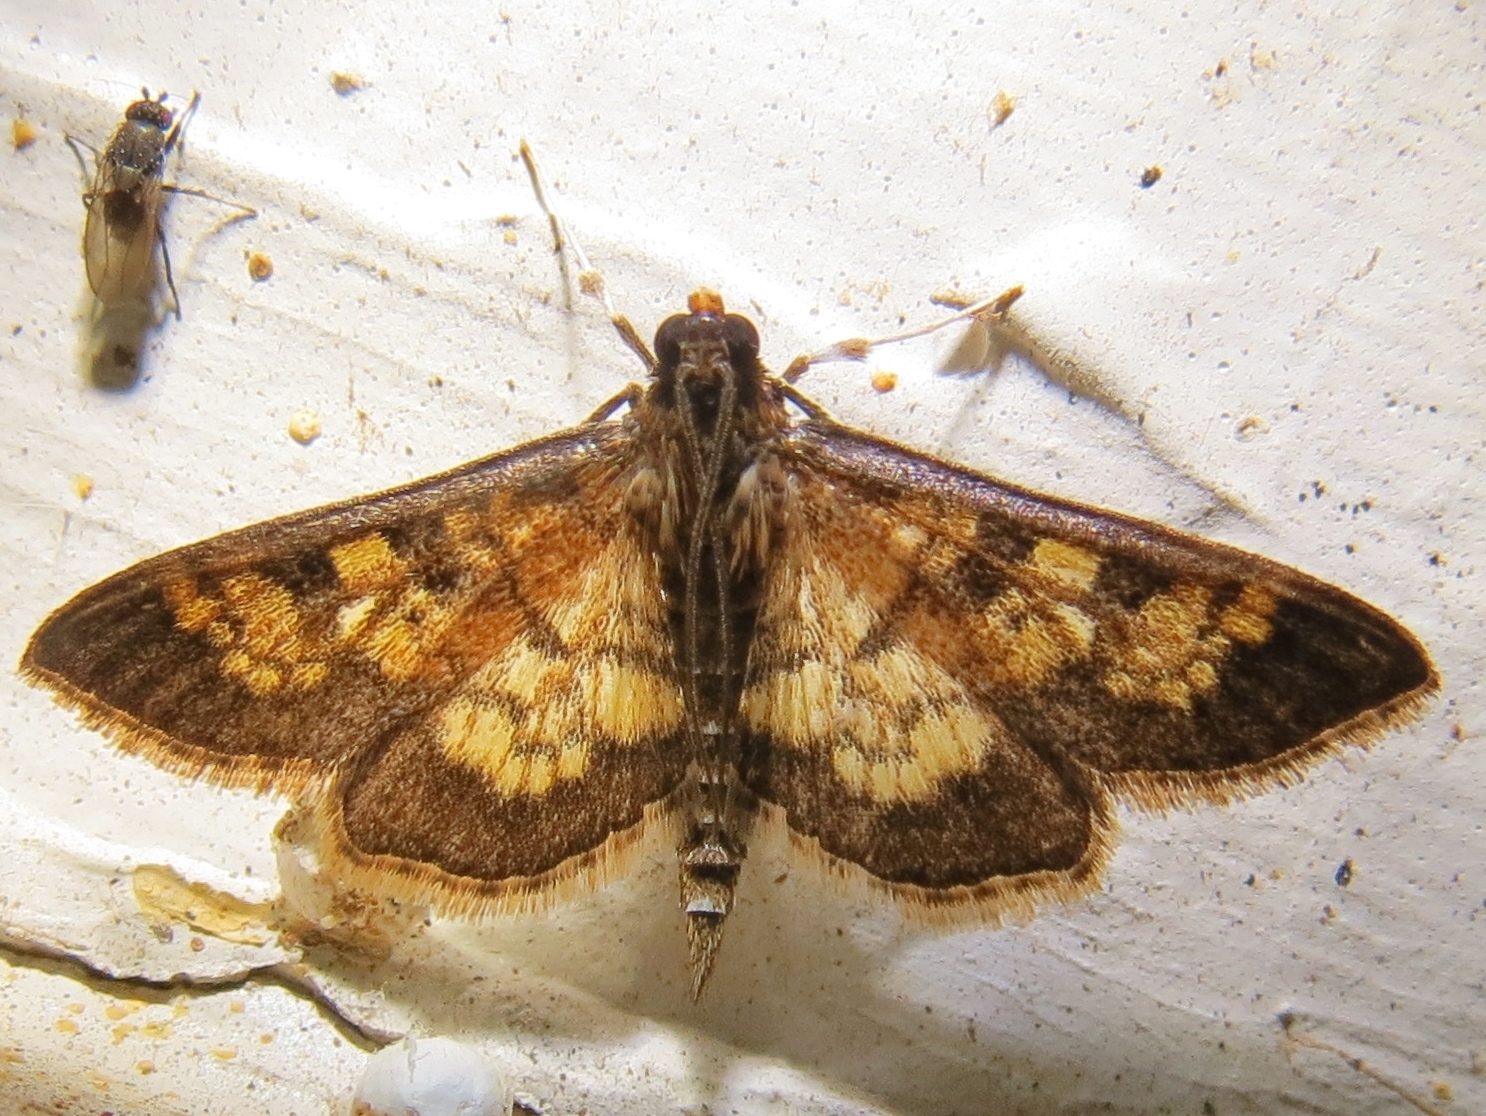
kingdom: Animalia
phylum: Arthropoda
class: Insecta
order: Lepidoptera
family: Crambidae
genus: Epipagis
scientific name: Epipagis adipaloides
